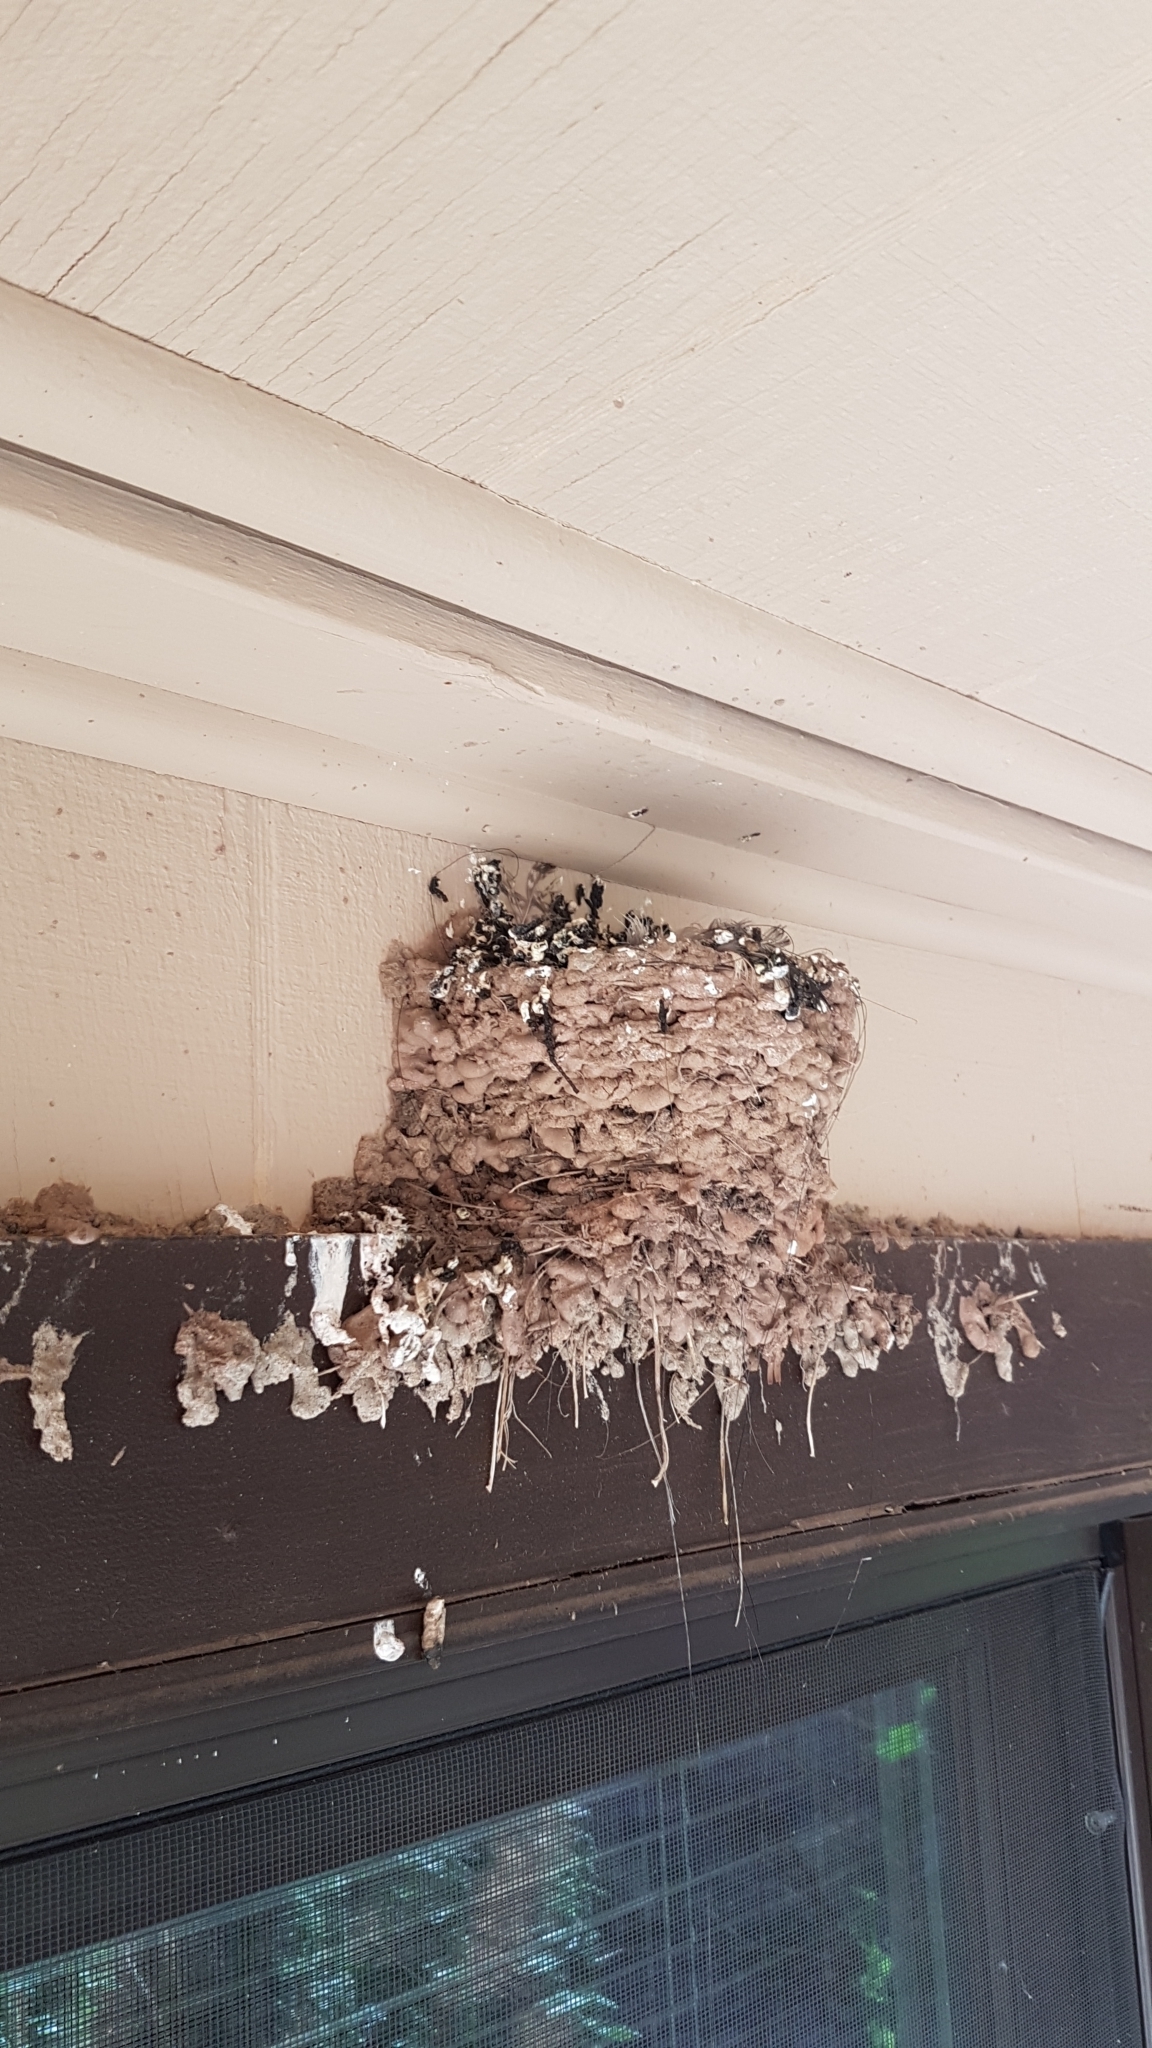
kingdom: Animalia
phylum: Chordata
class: Aves
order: Passeriformes
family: Hirundinidae
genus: Hirundo
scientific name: Hirundo rustica
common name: Barn swallow
